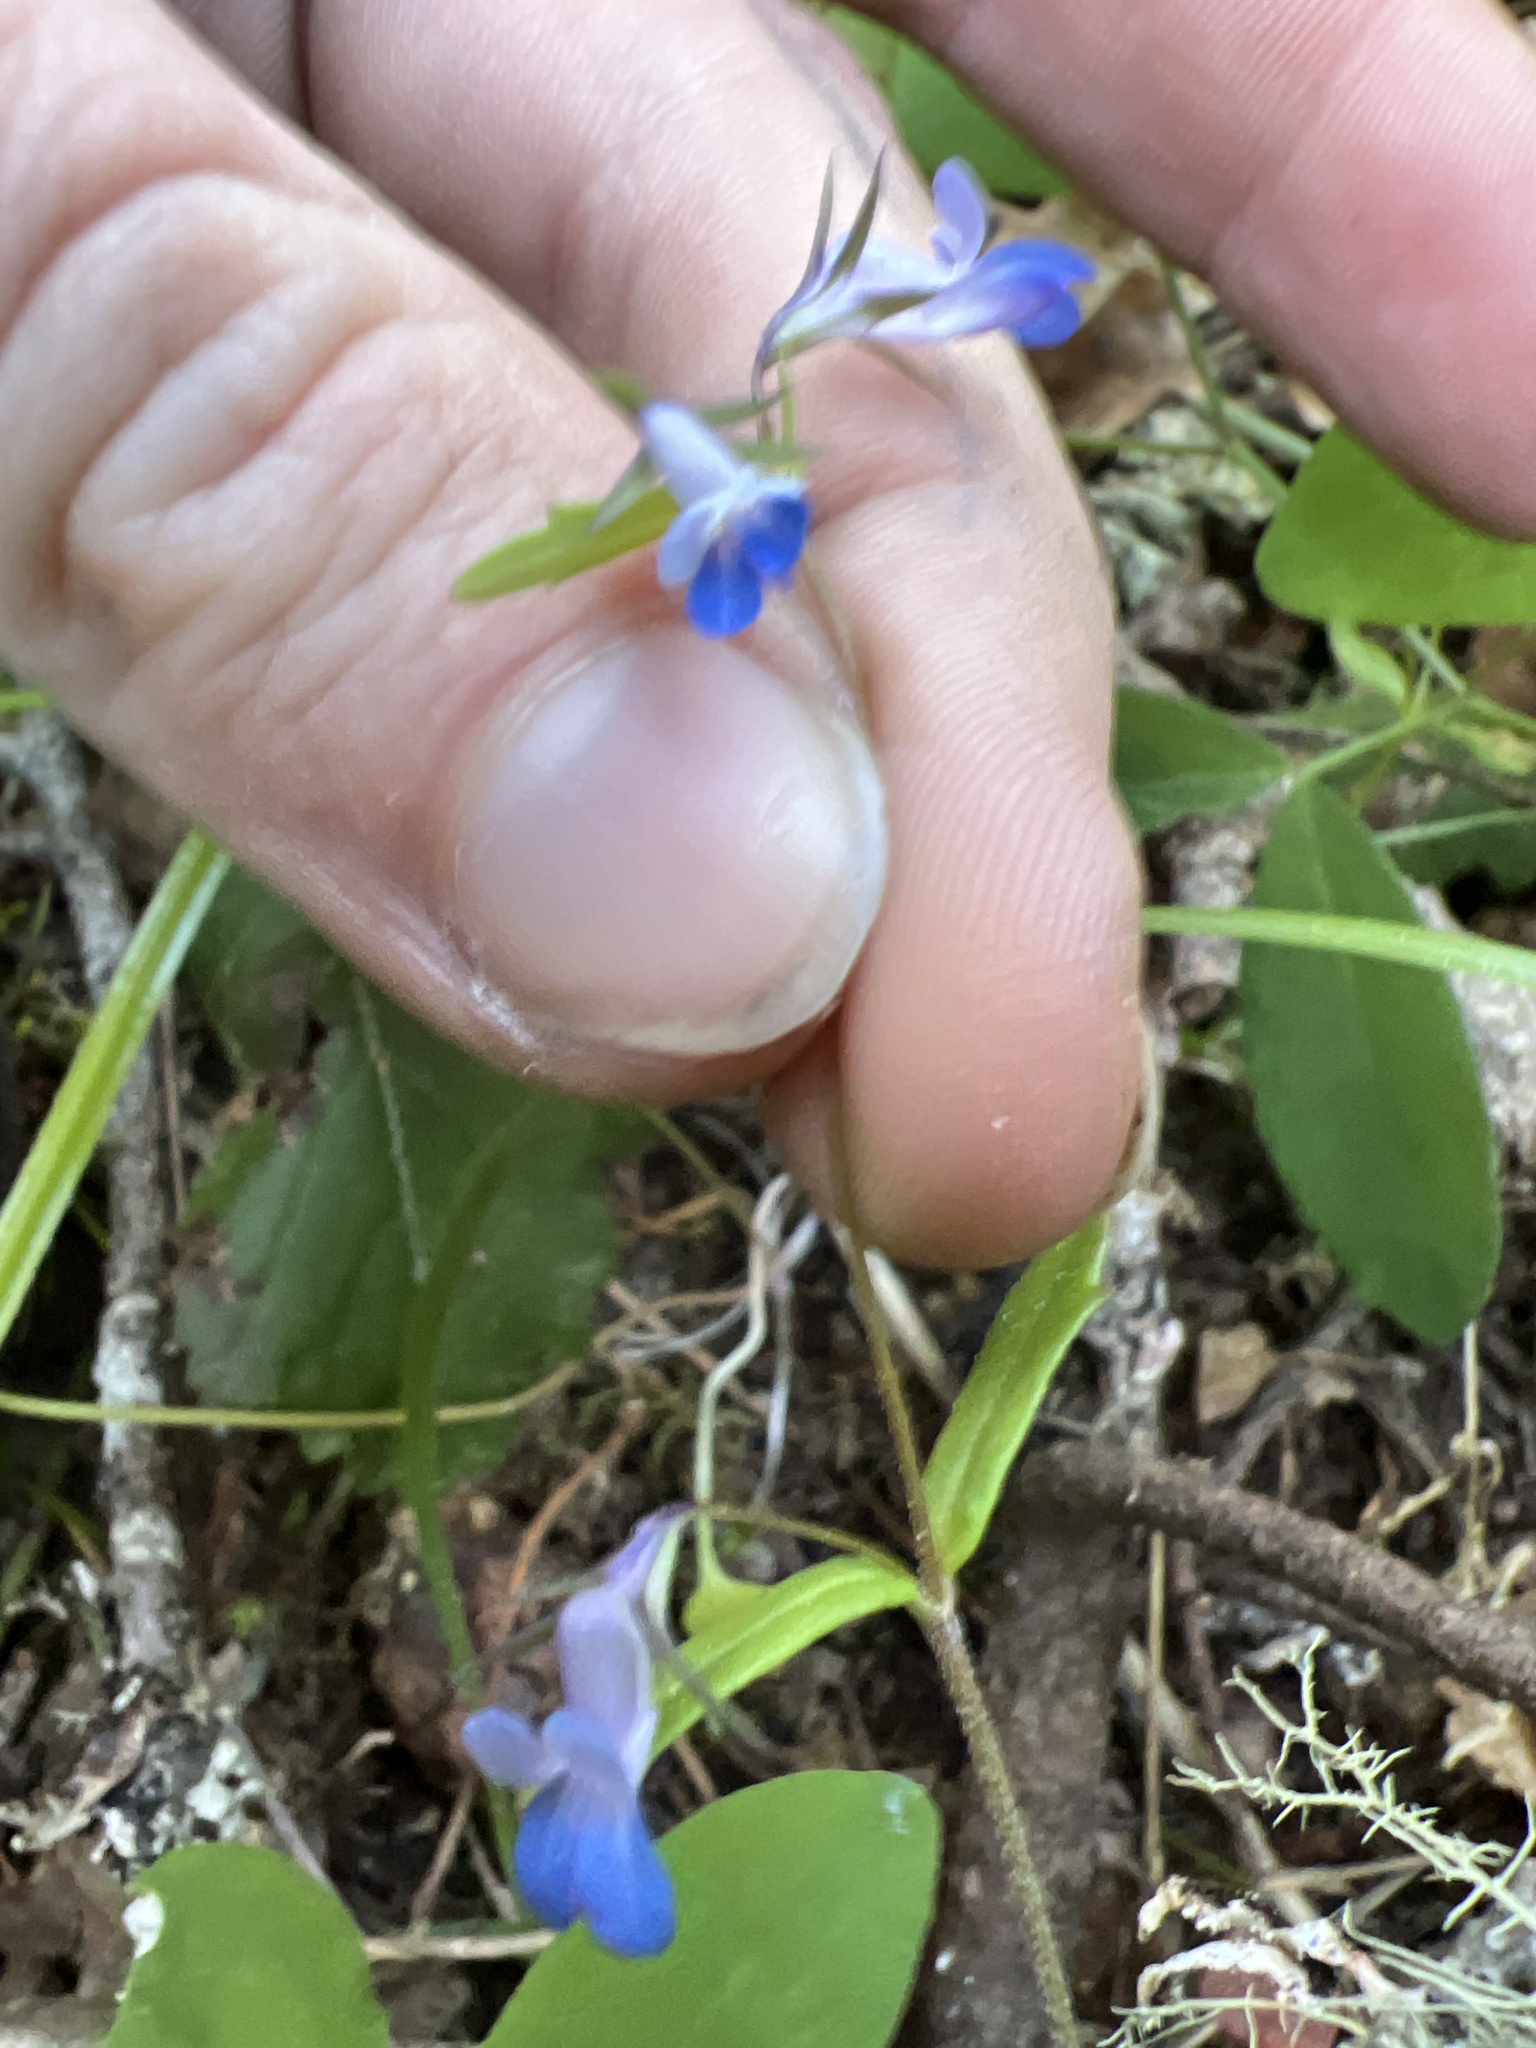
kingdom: Plantae
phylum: Tracheophyta
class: Magnoliopsida
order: Lamiales
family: Plantaginaceae
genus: Collinsia
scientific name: Collinsia parviflora
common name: Blue-lips
